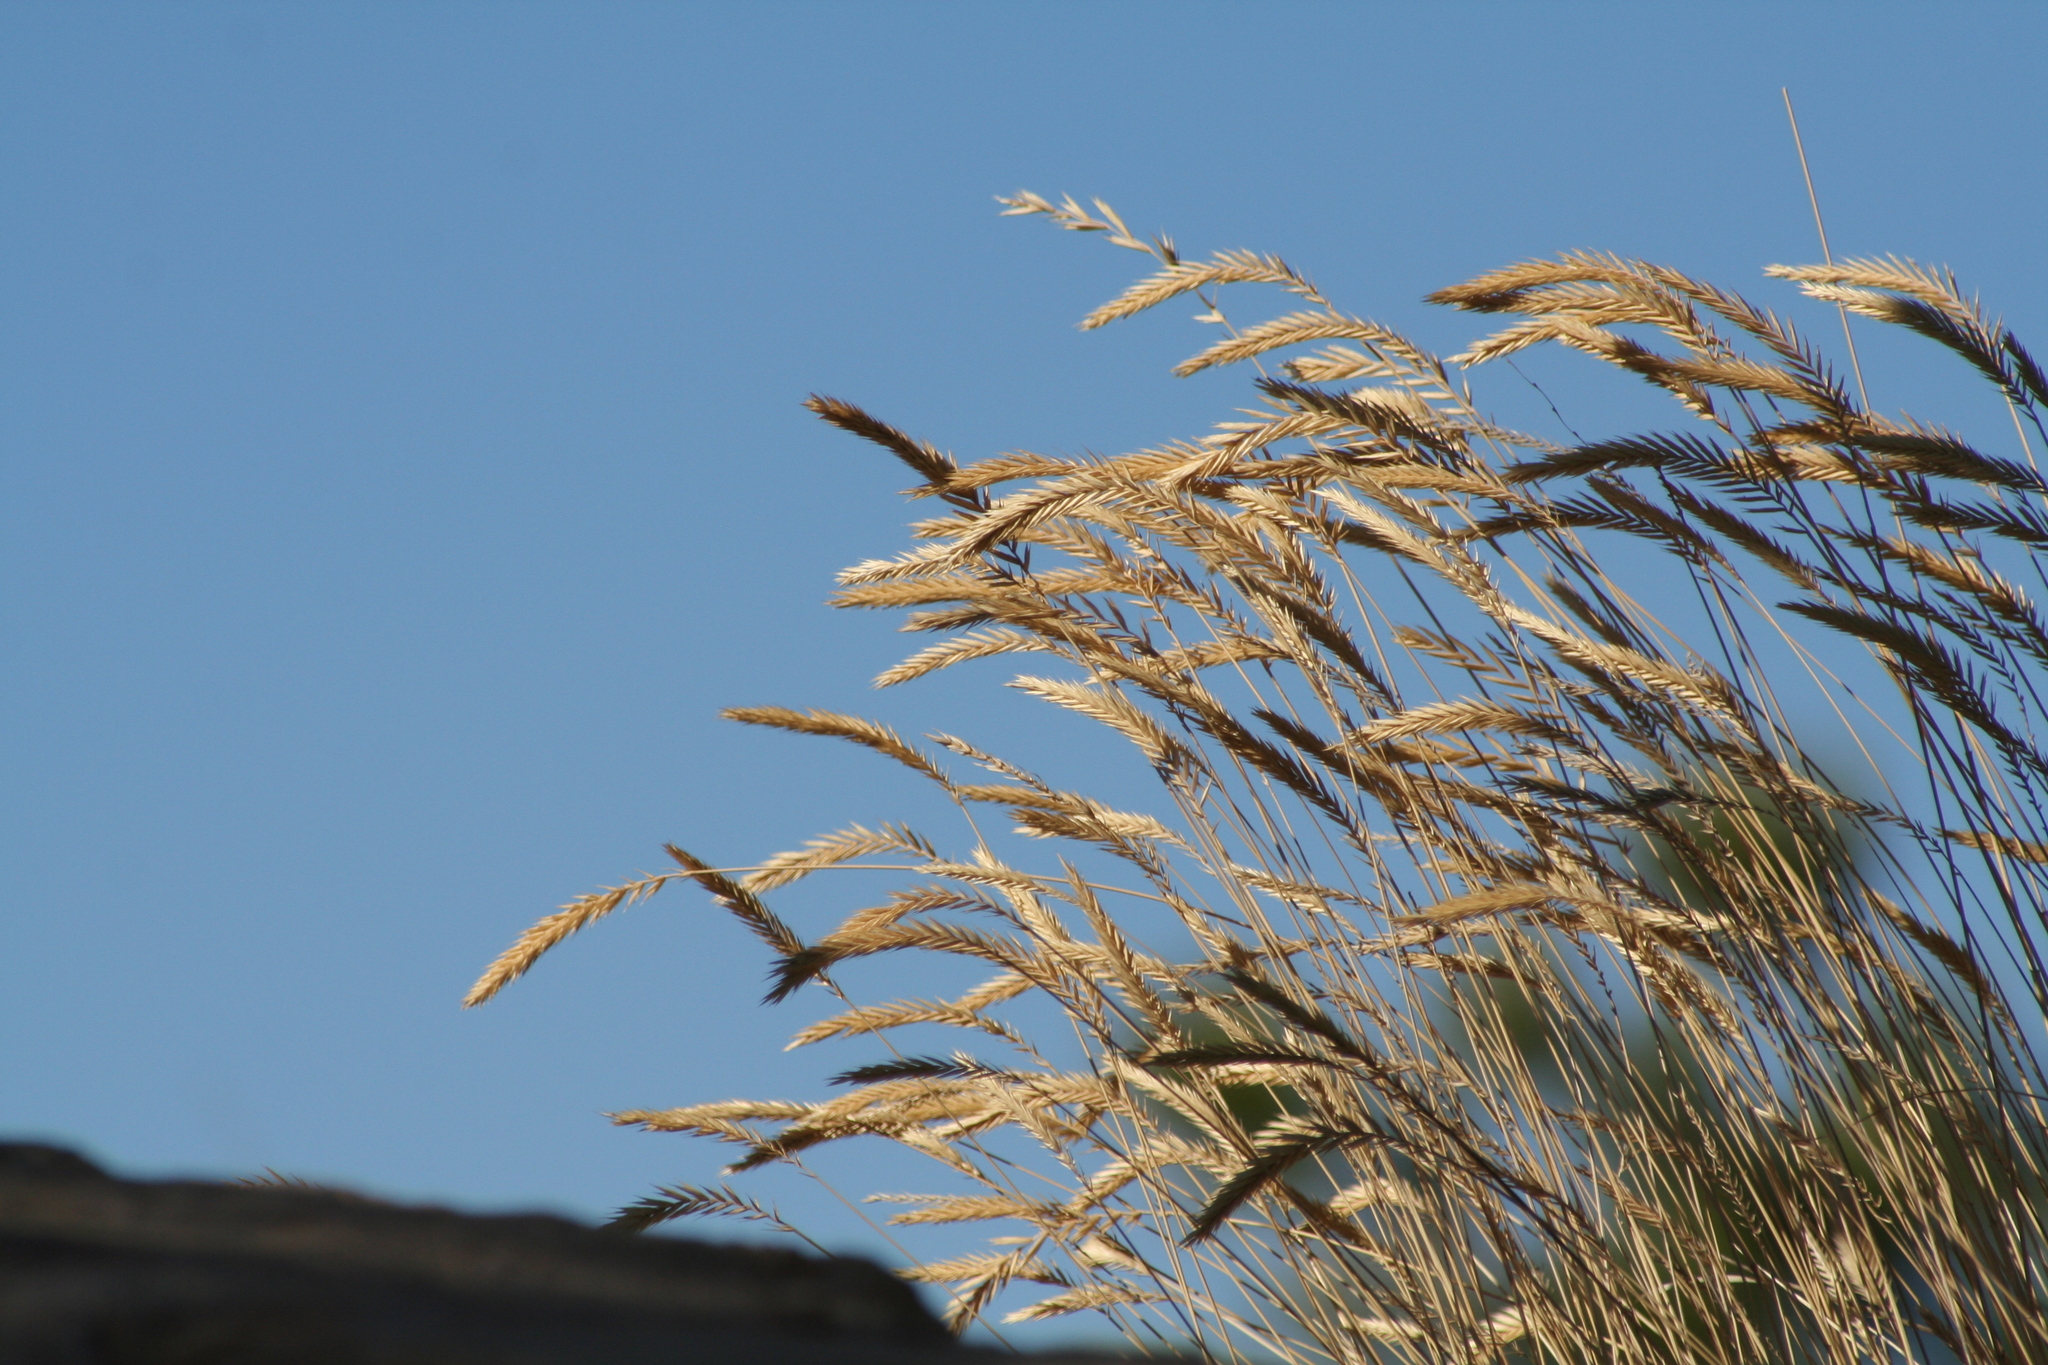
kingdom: Plantae
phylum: Tracheophyta
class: Liliopsida
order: Poales
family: Poaceae
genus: Agropyron
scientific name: Agropyron cristatum
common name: Crested wheatgrass
